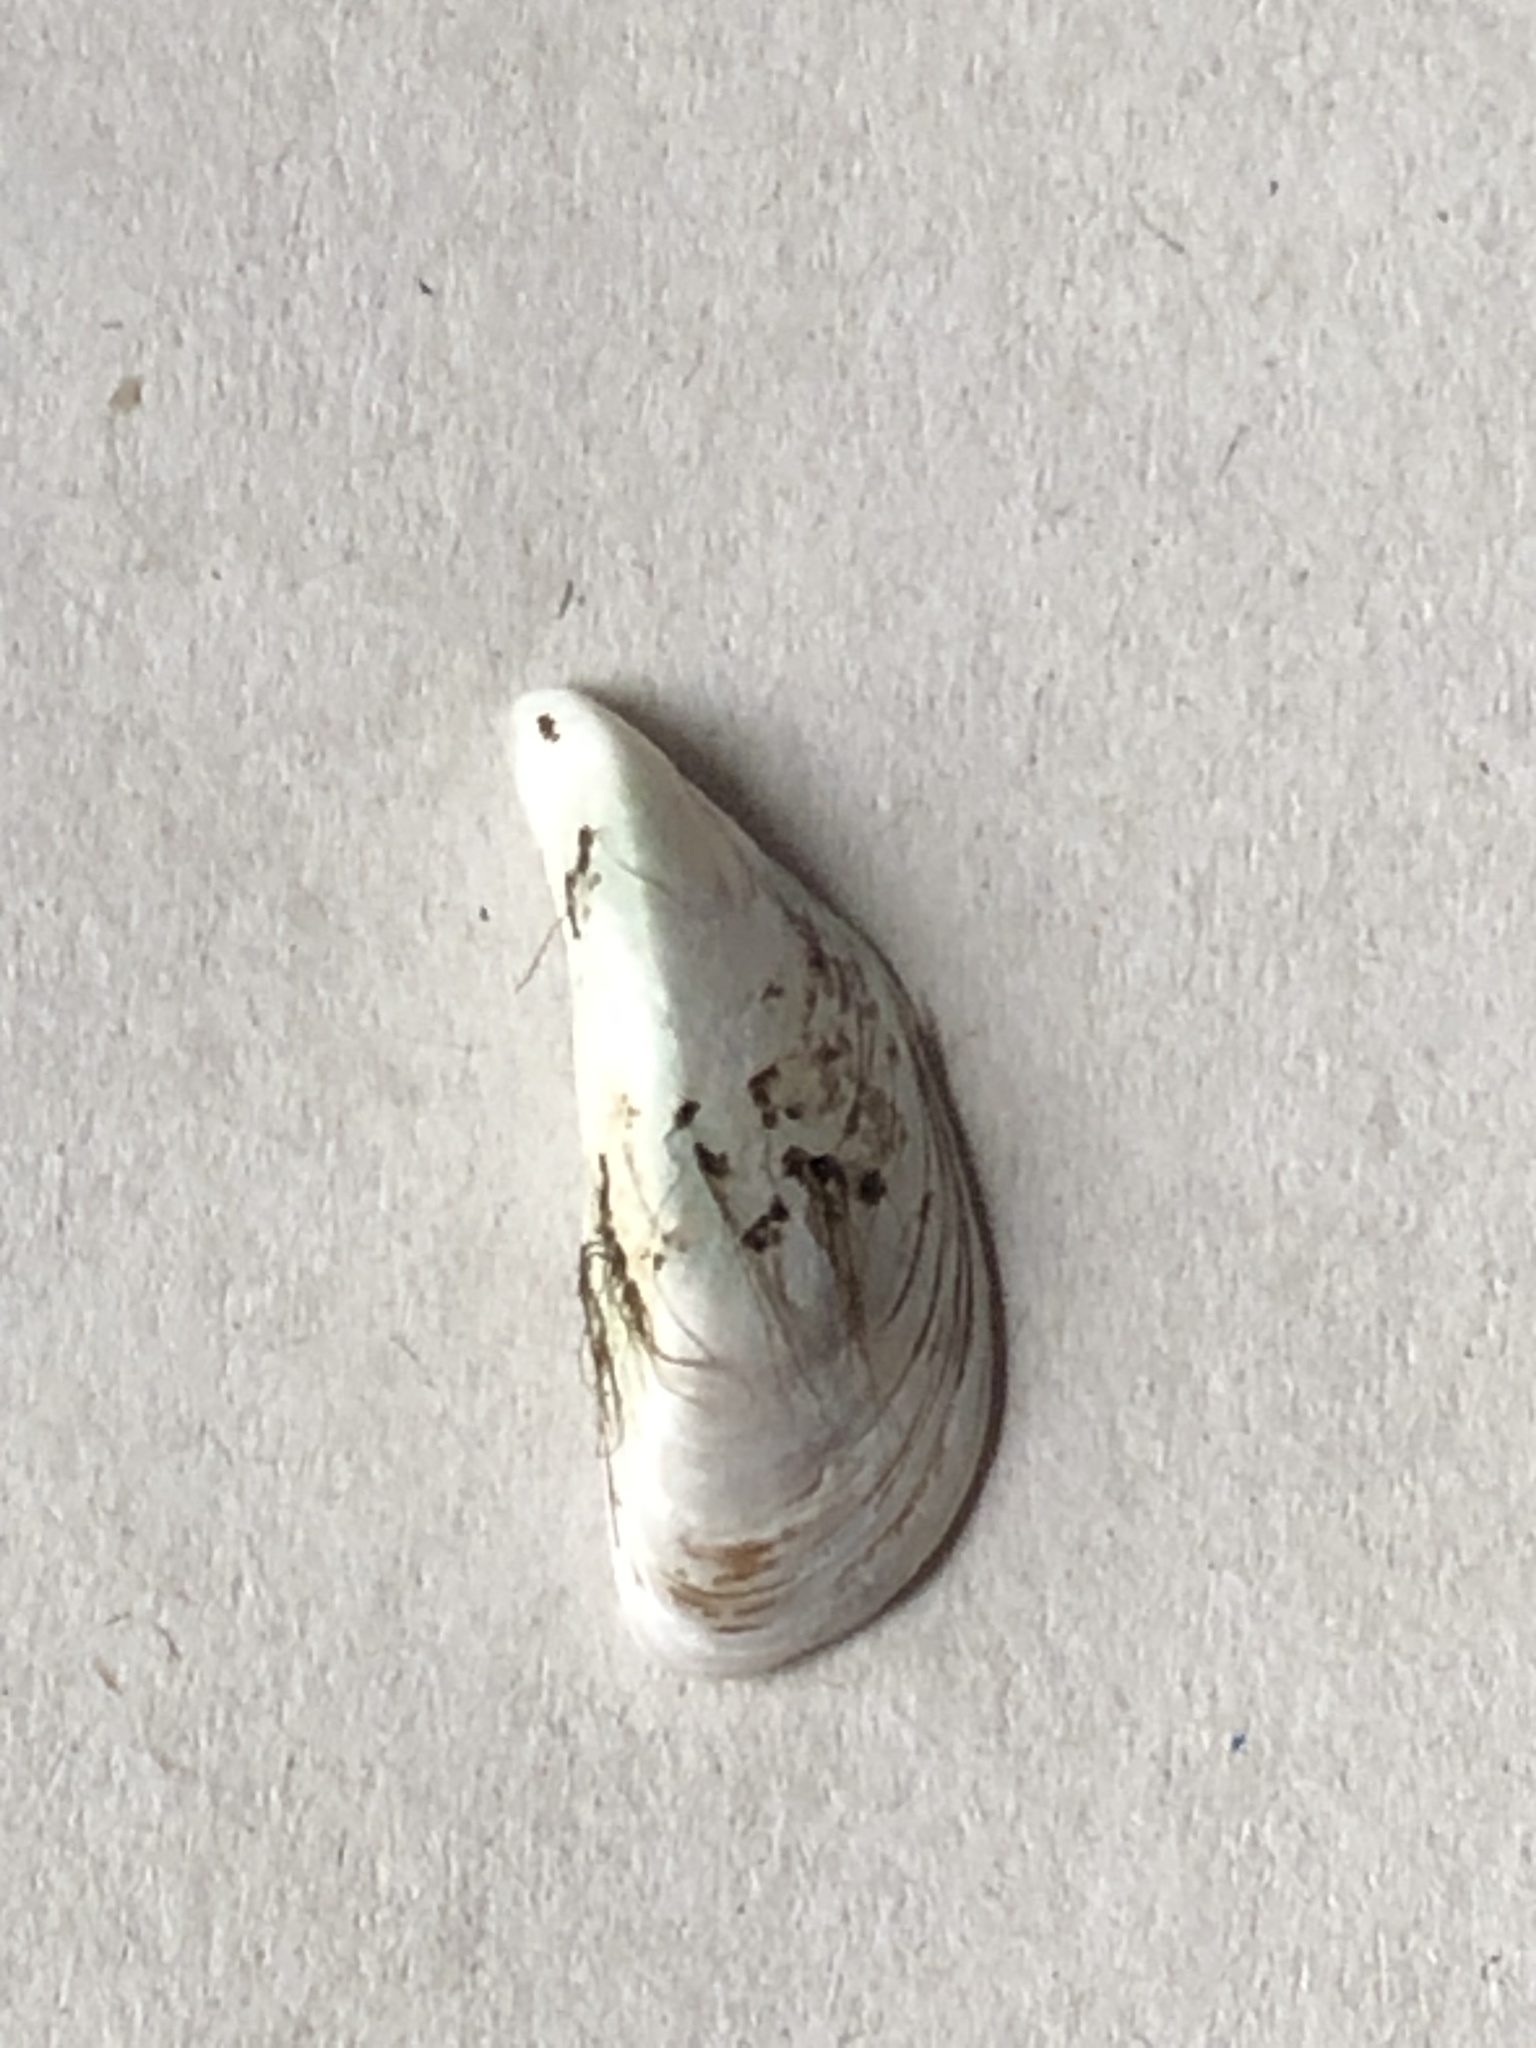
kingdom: Animalia
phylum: Mollusca
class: Bivalvia
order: Myida
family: Dreissenidae
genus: Dreissena
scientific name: Dreissena polymorpha
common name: Zebra mussel
